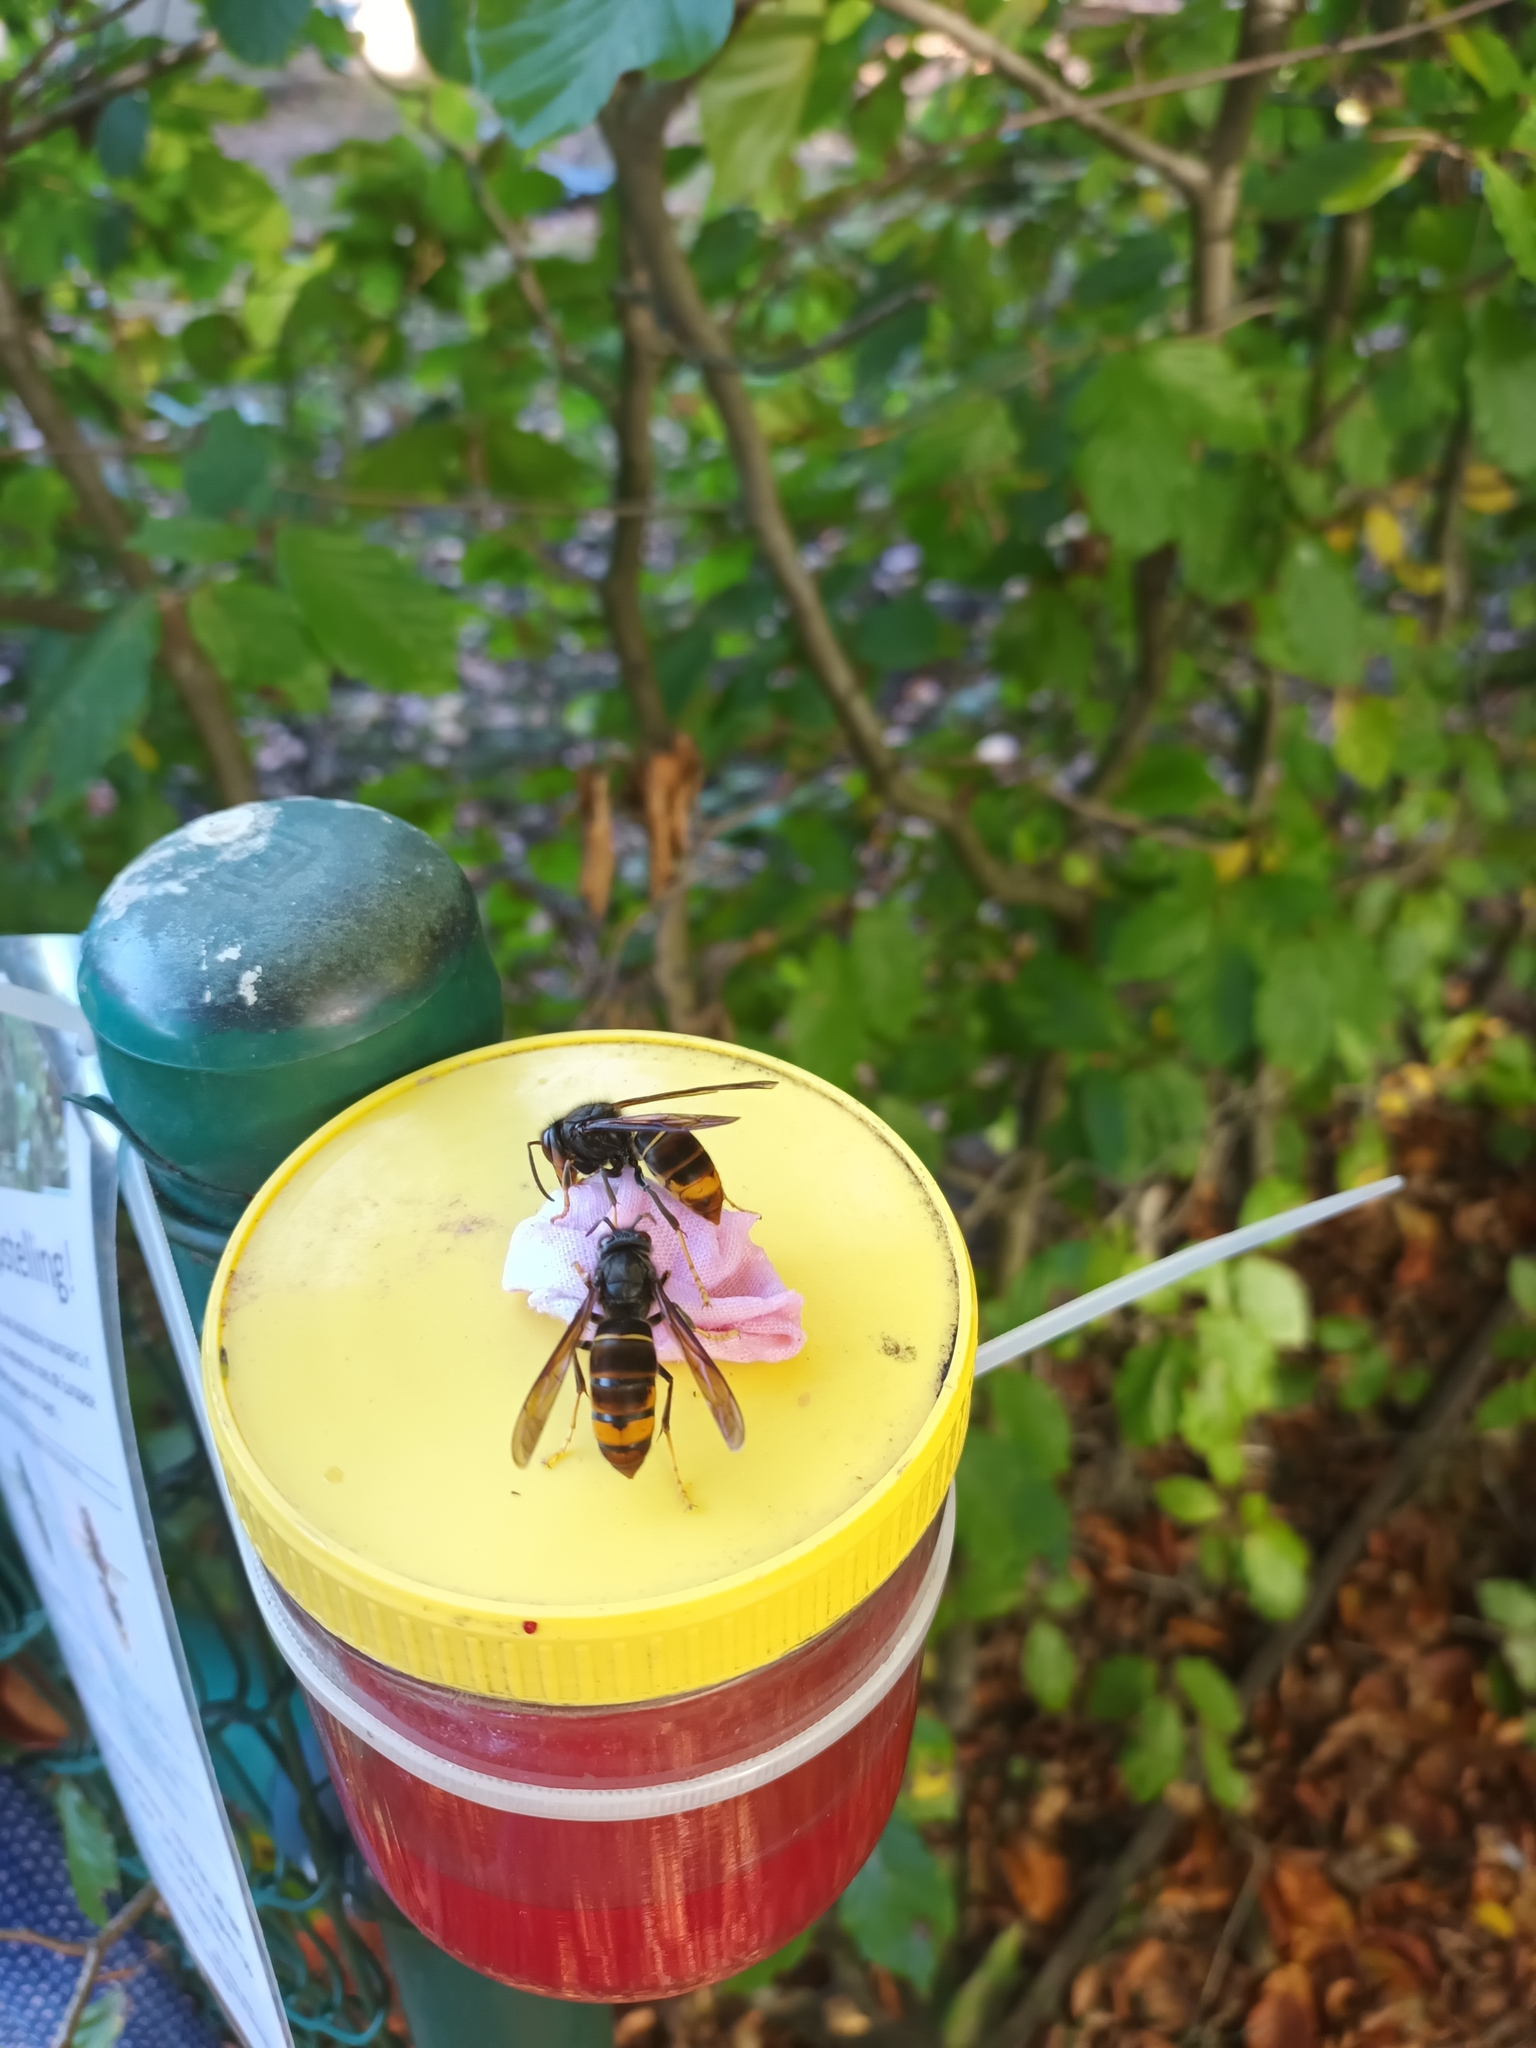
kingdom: Animalia
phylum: Arthropoda
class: Insecta
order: Hymenoptera
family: Vespidae
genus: Vespa
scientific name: Vespa velutina
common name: Asian hornet
